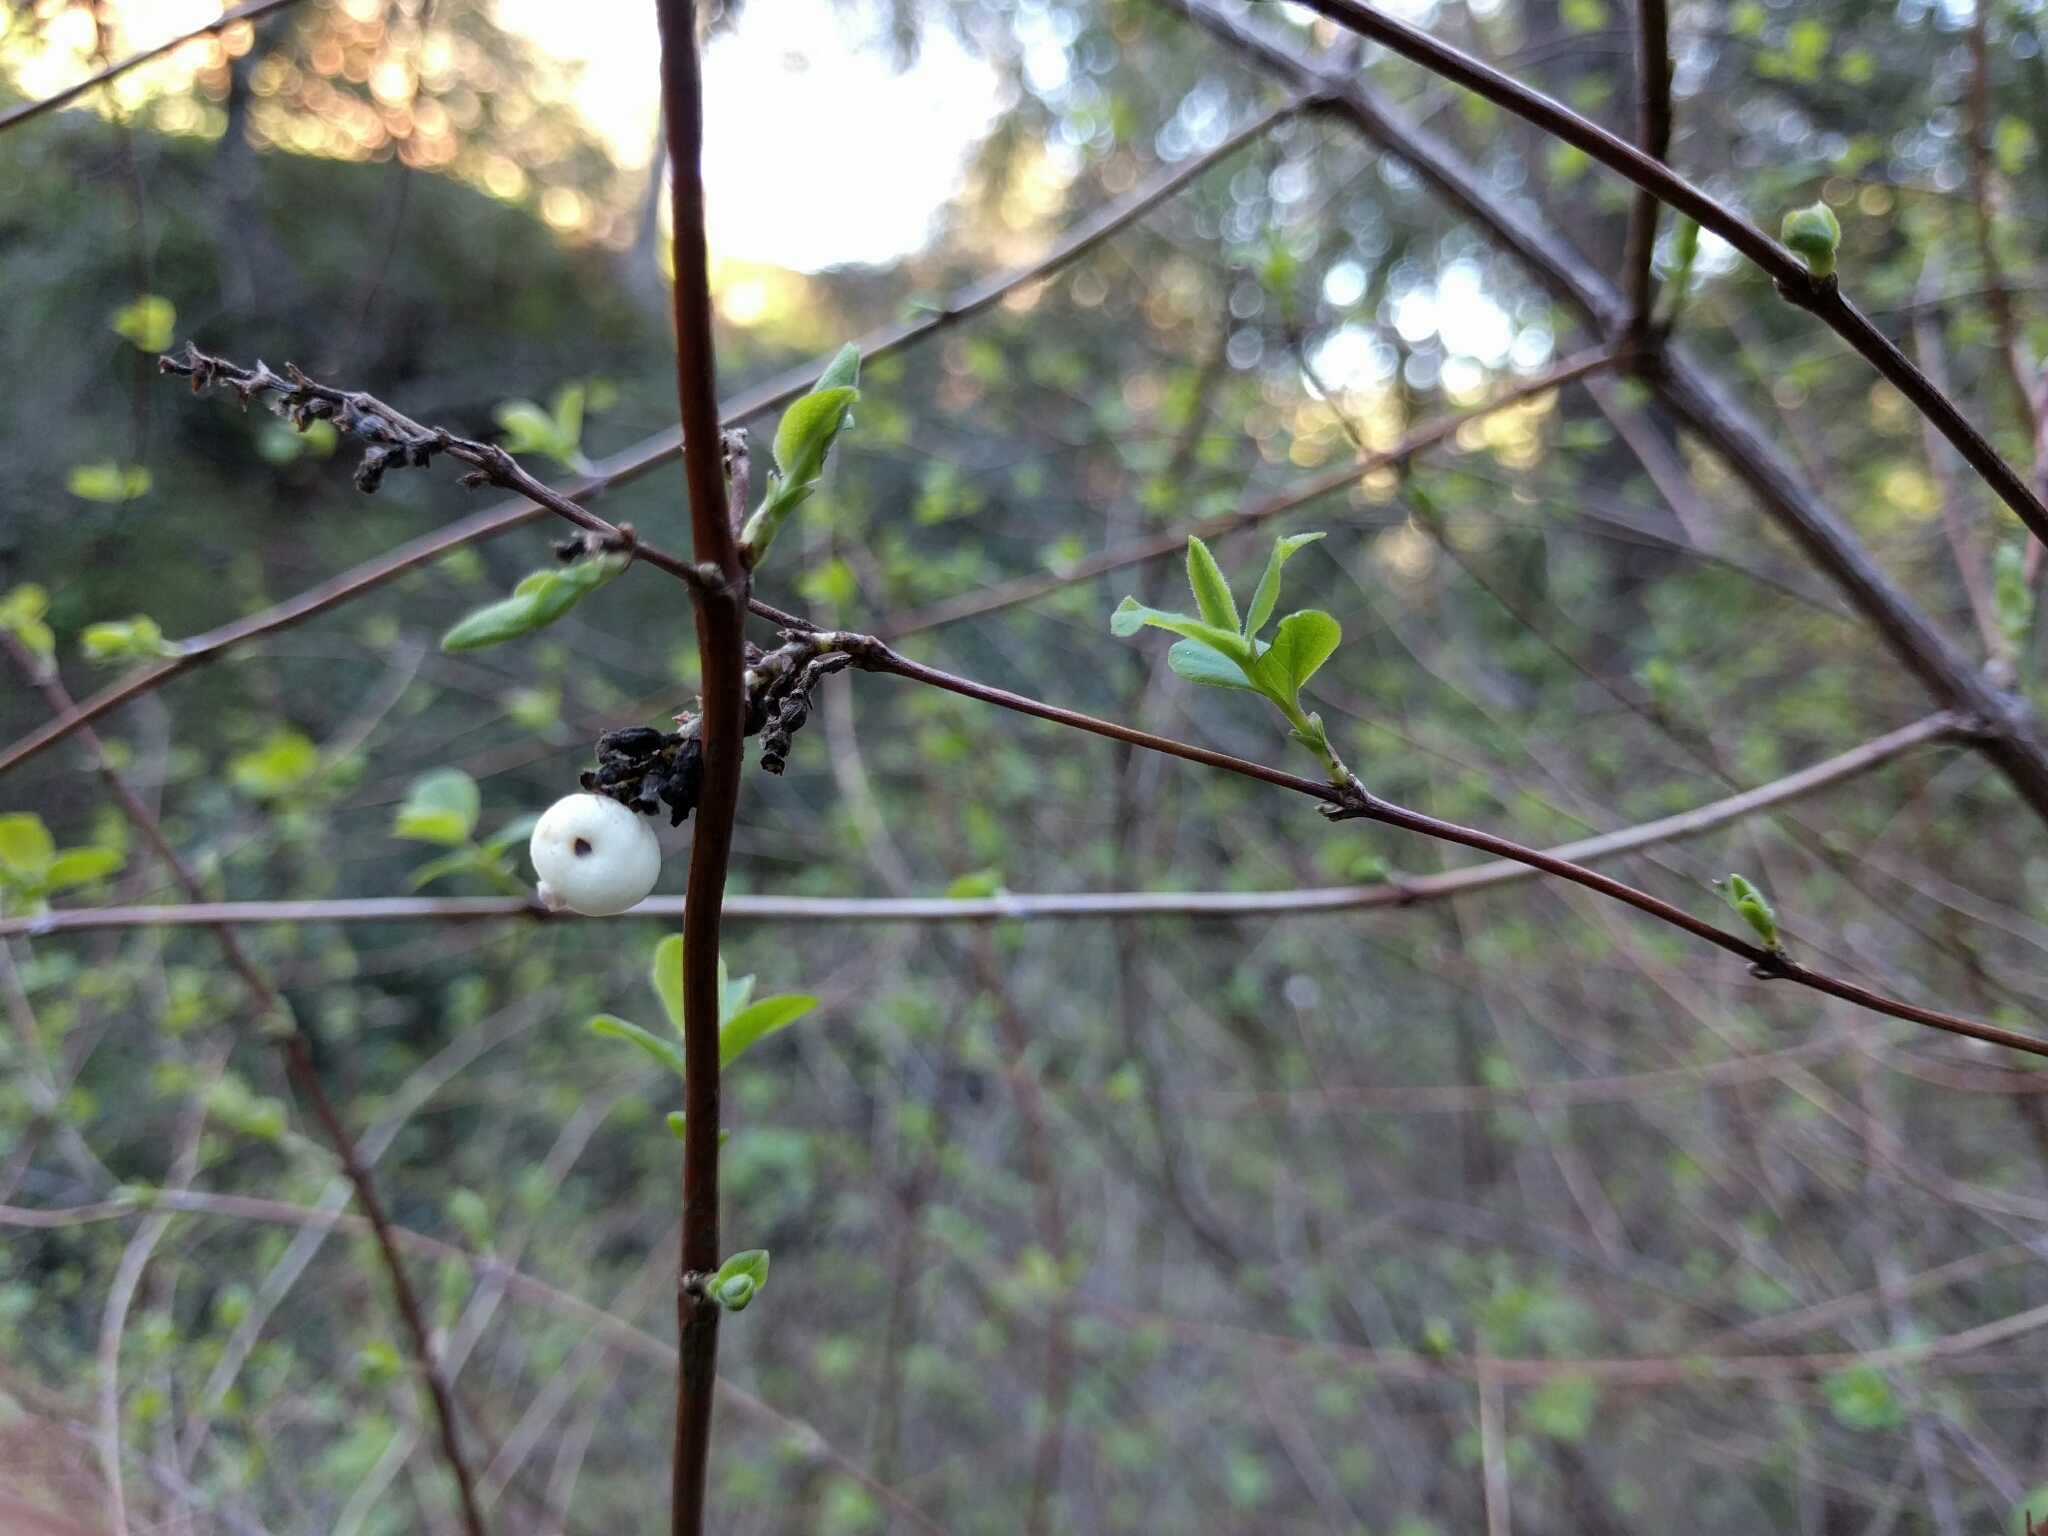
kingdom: Plantae
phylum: Tracheophyta
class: Magnoliopsida
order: Dipsacales
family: Caprifoliaceae
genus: Symphoricarpos
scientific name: Symphoricarpos albus
